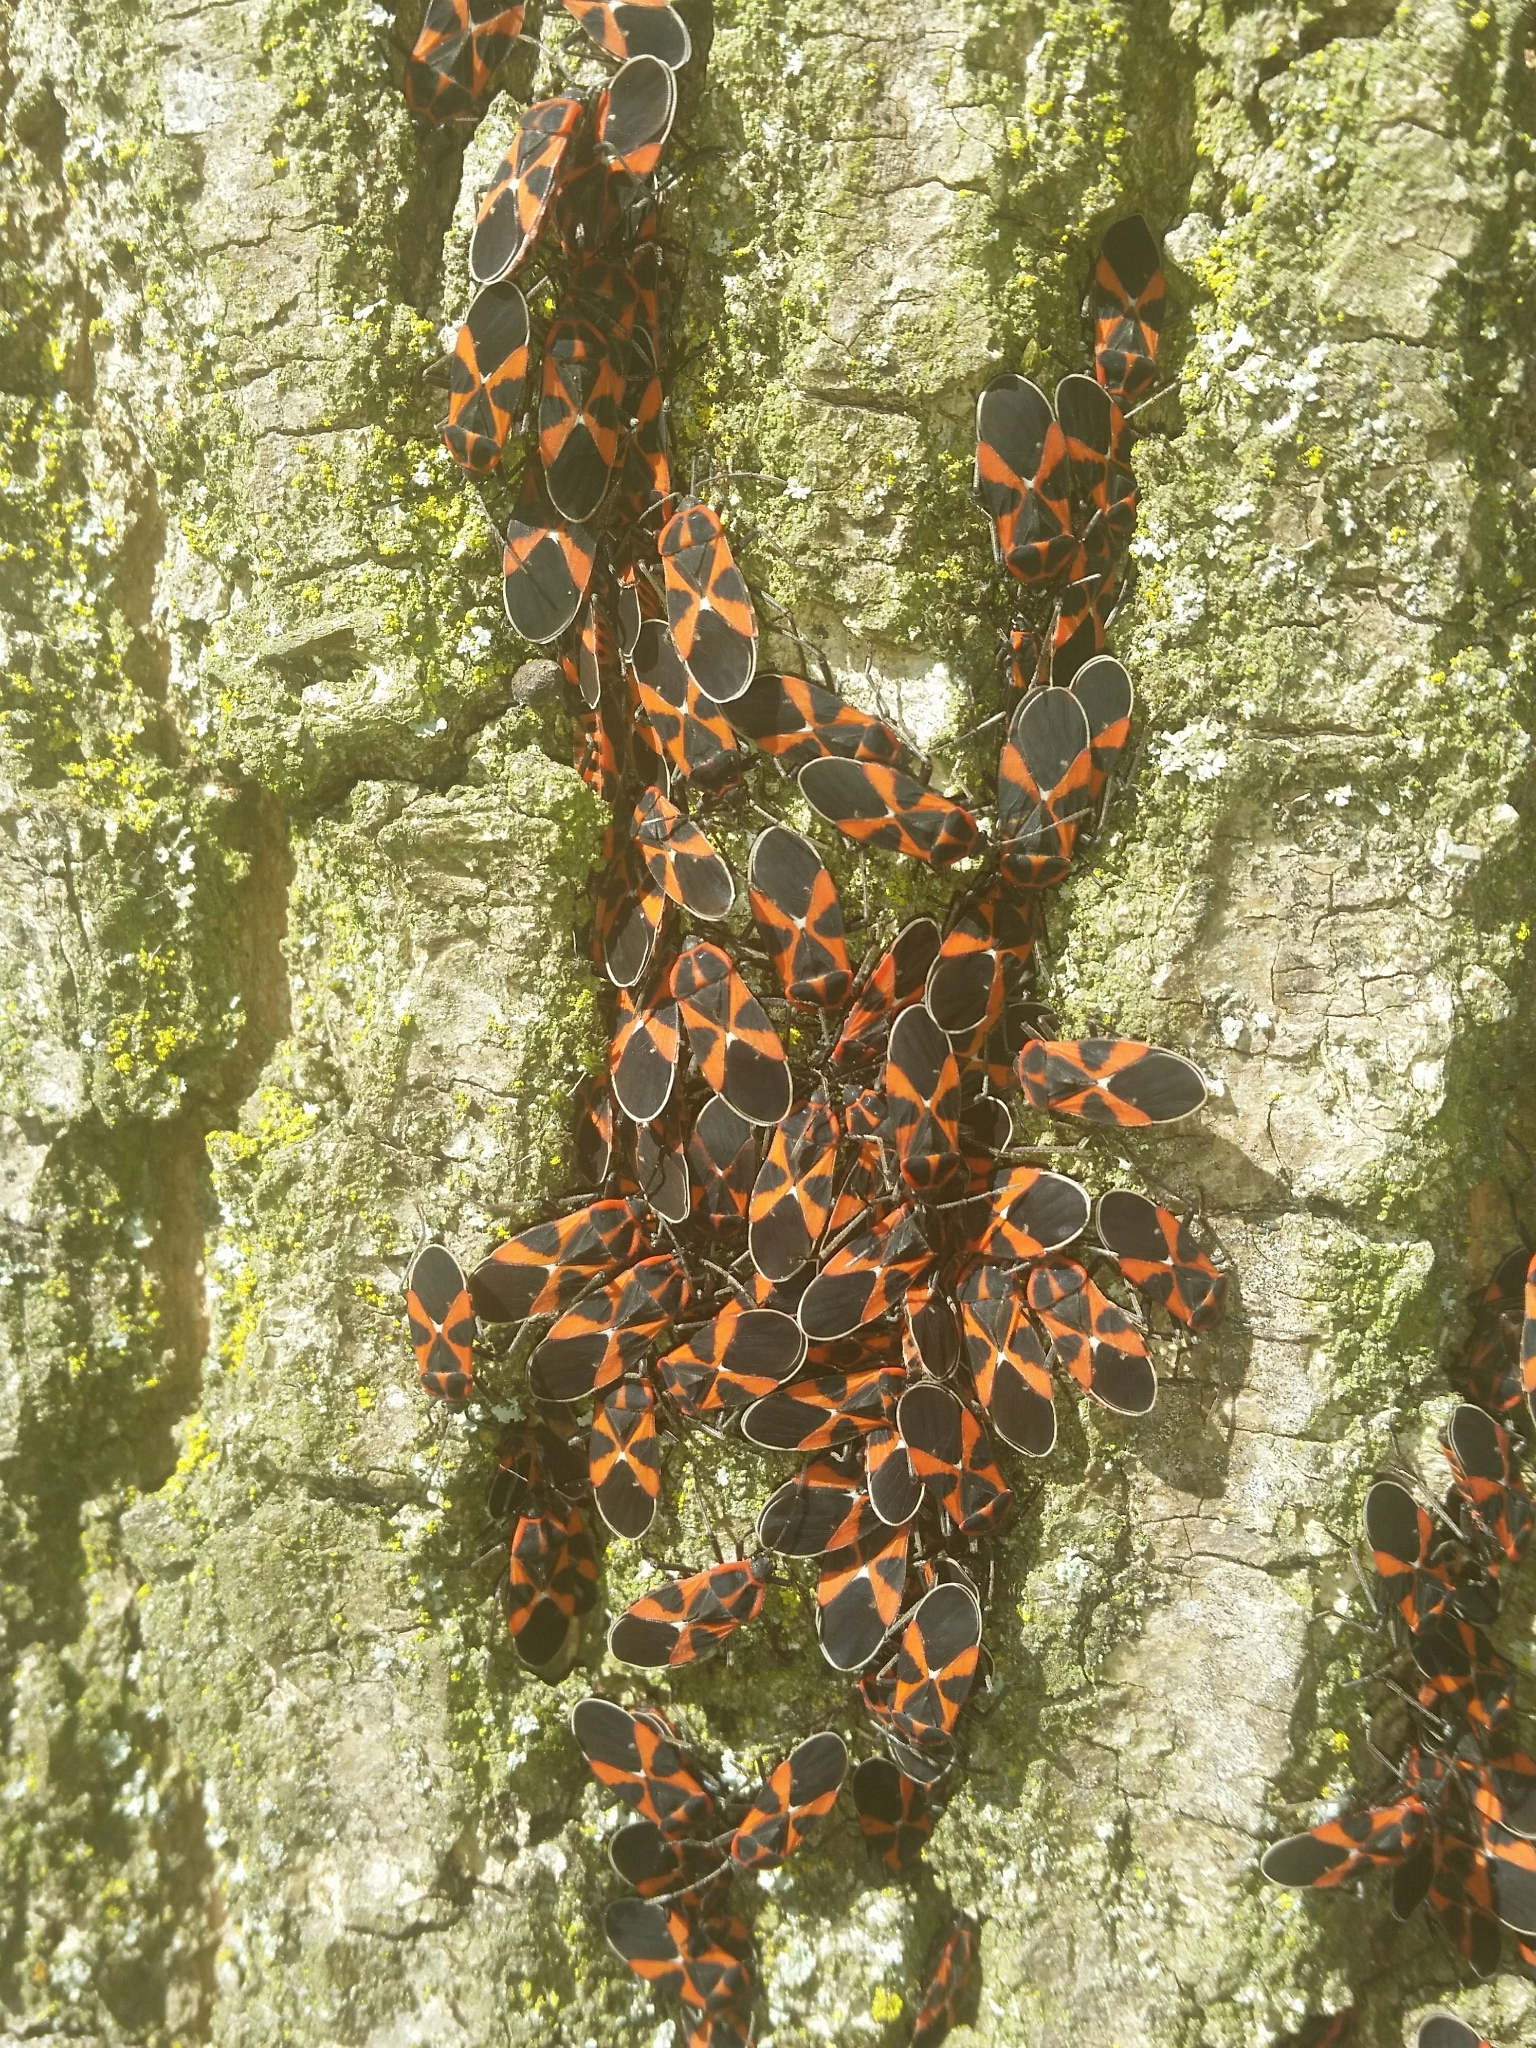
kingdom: Animalia
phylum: Arthropoda
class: Insecta
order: Hemiptera
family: Lygaeidae
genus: Tropidothorax
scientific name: Tropidothorax leucopterus
